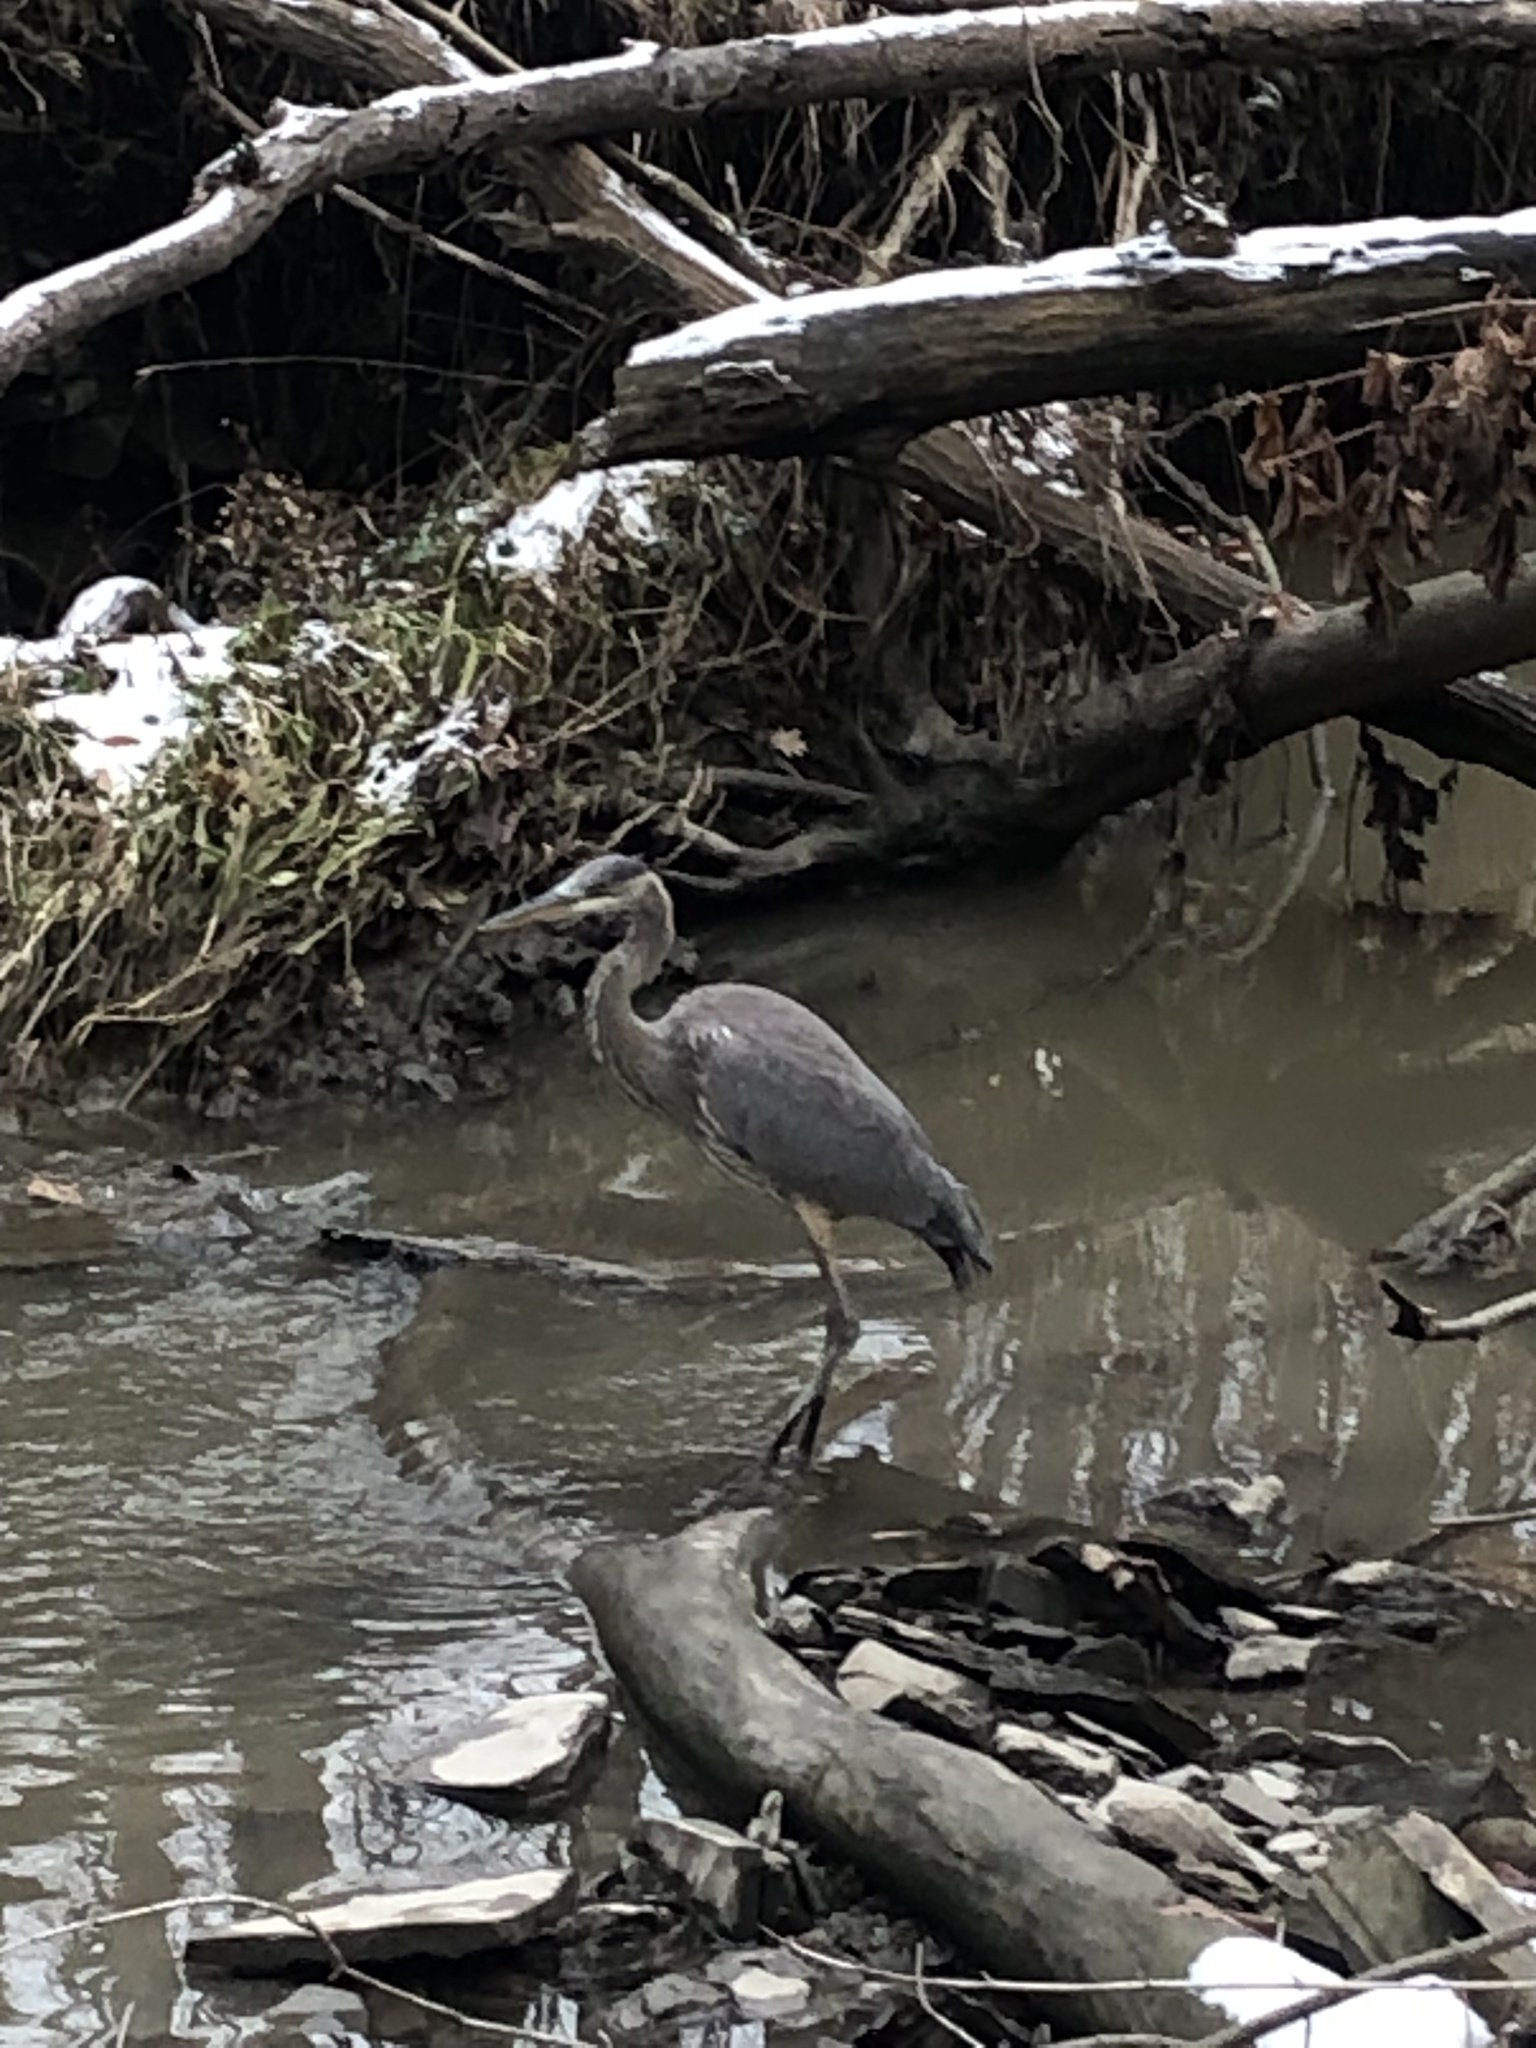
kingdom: Animalia
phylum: Chordata
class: Aves
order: Pelecaniformes
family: Ardeidae
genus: Ardea
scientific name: Ardea herodias
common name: Great blue heron
